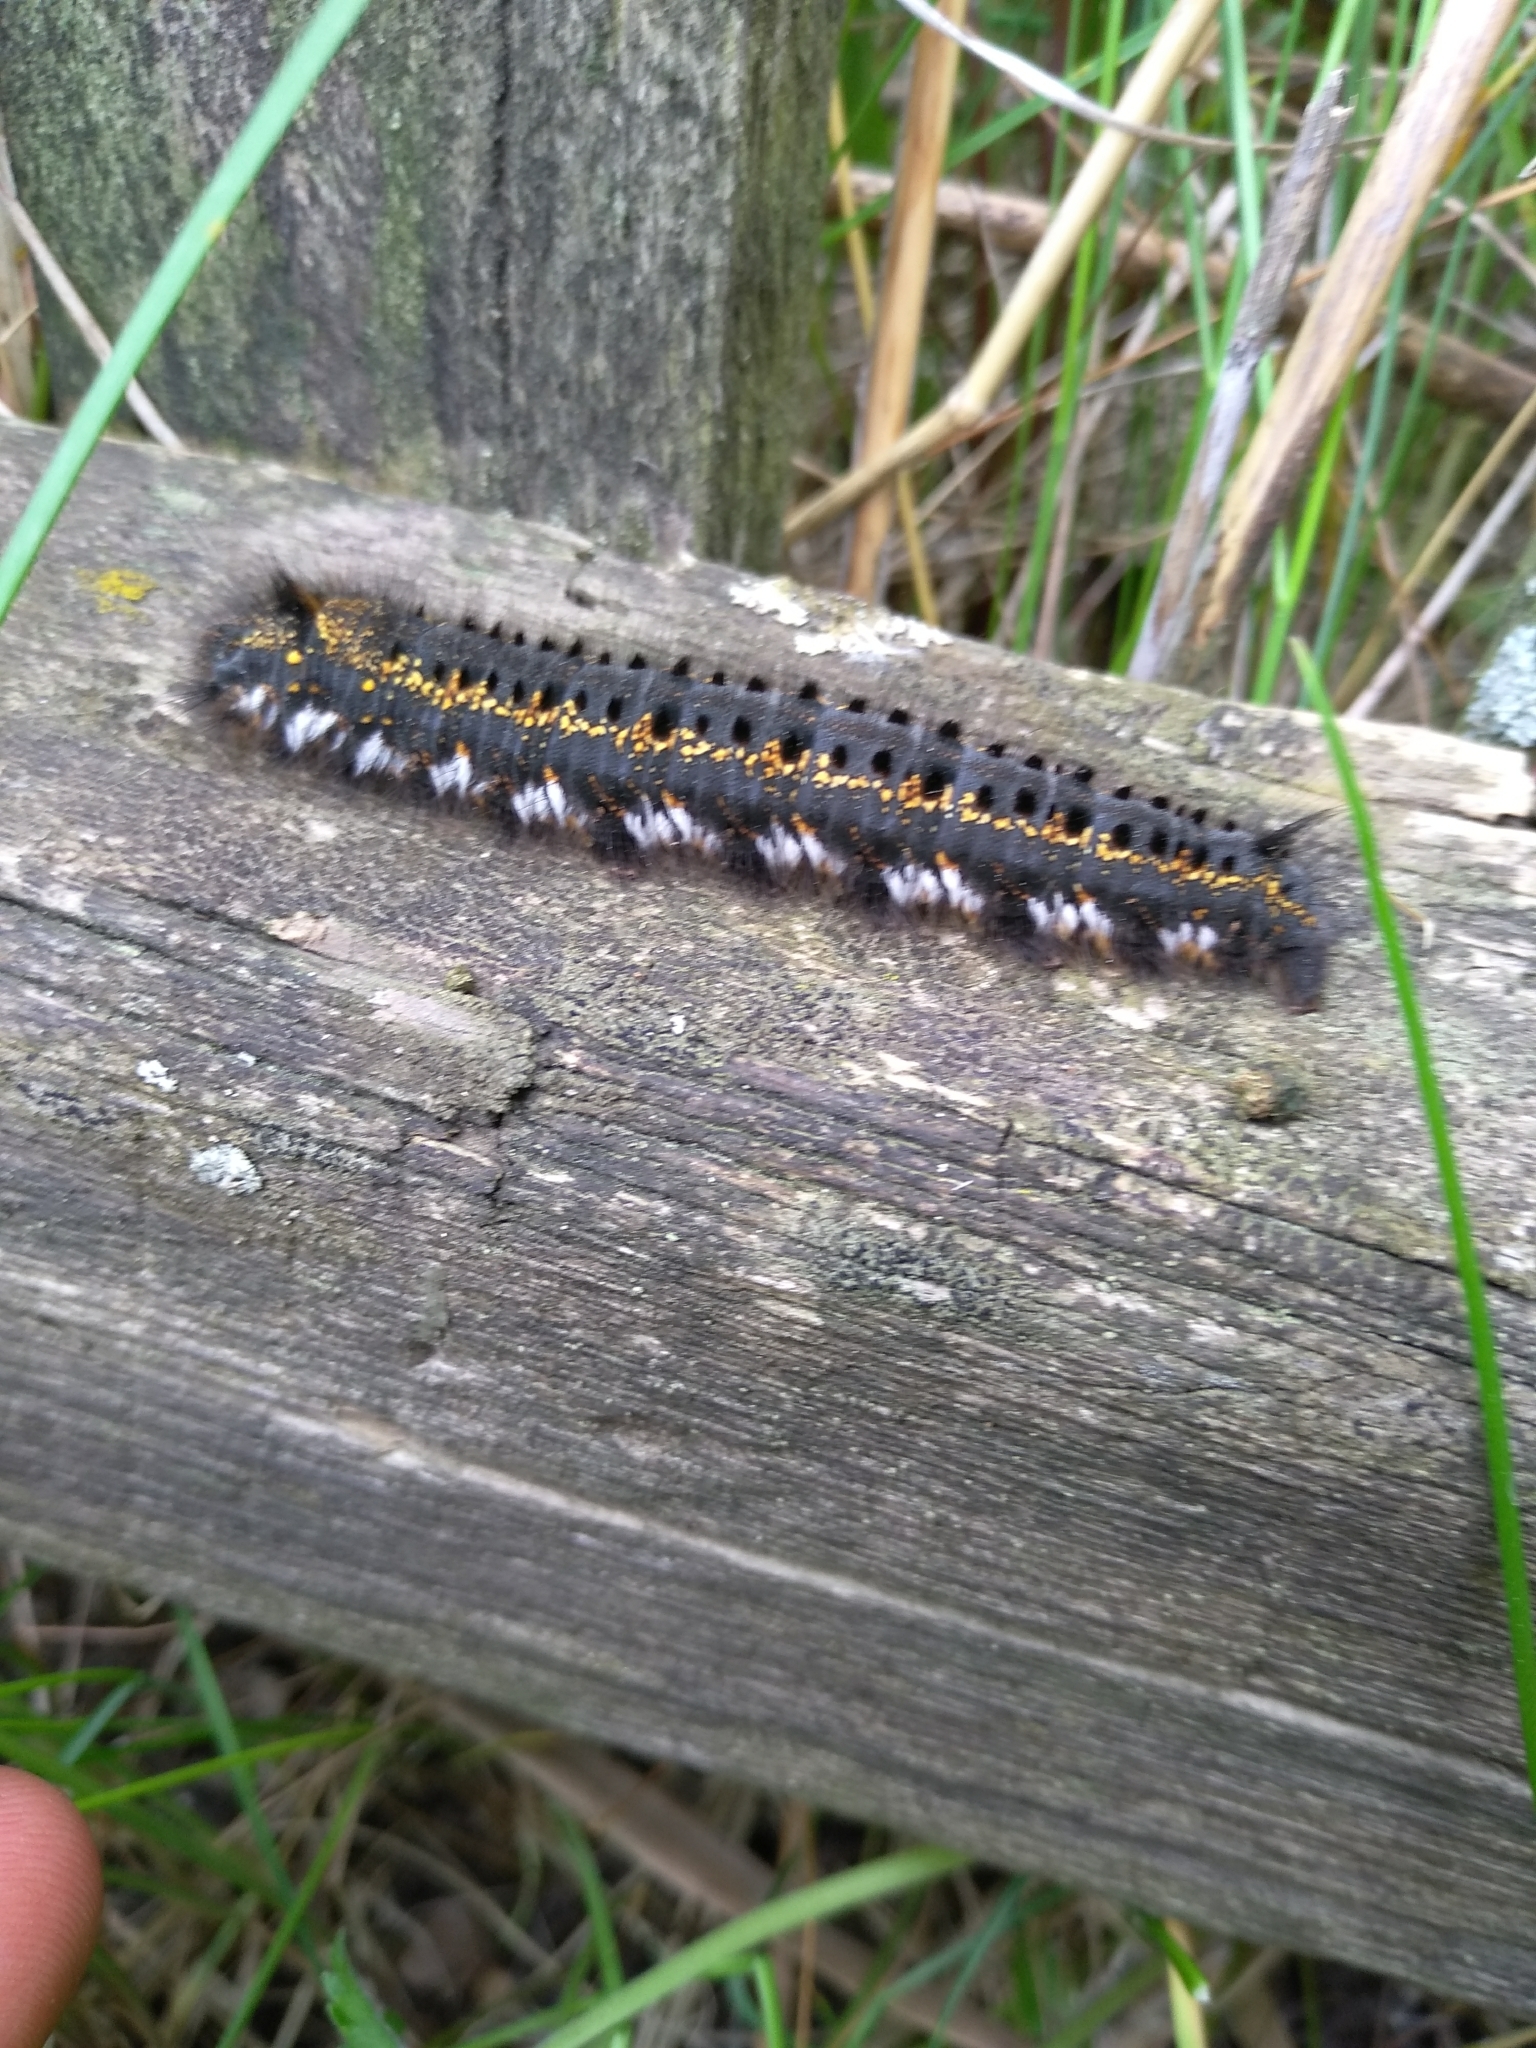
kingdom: Animalia
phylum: Arthropoda
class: Insecta
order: Lepidoptera
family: Lasiocampidae
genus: Euthrix
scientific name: Euthrix potatoria
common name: Drinker
